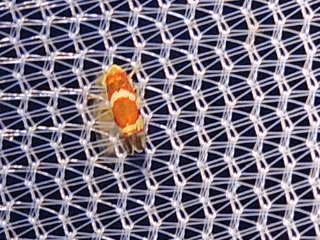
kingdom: Animalia
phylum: Arthropoda
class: Insecta
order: Hemiptera
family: Cicadellidae
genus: Erythroneura
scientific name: Erythroneura vitis
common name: Grapevine leafhopper
